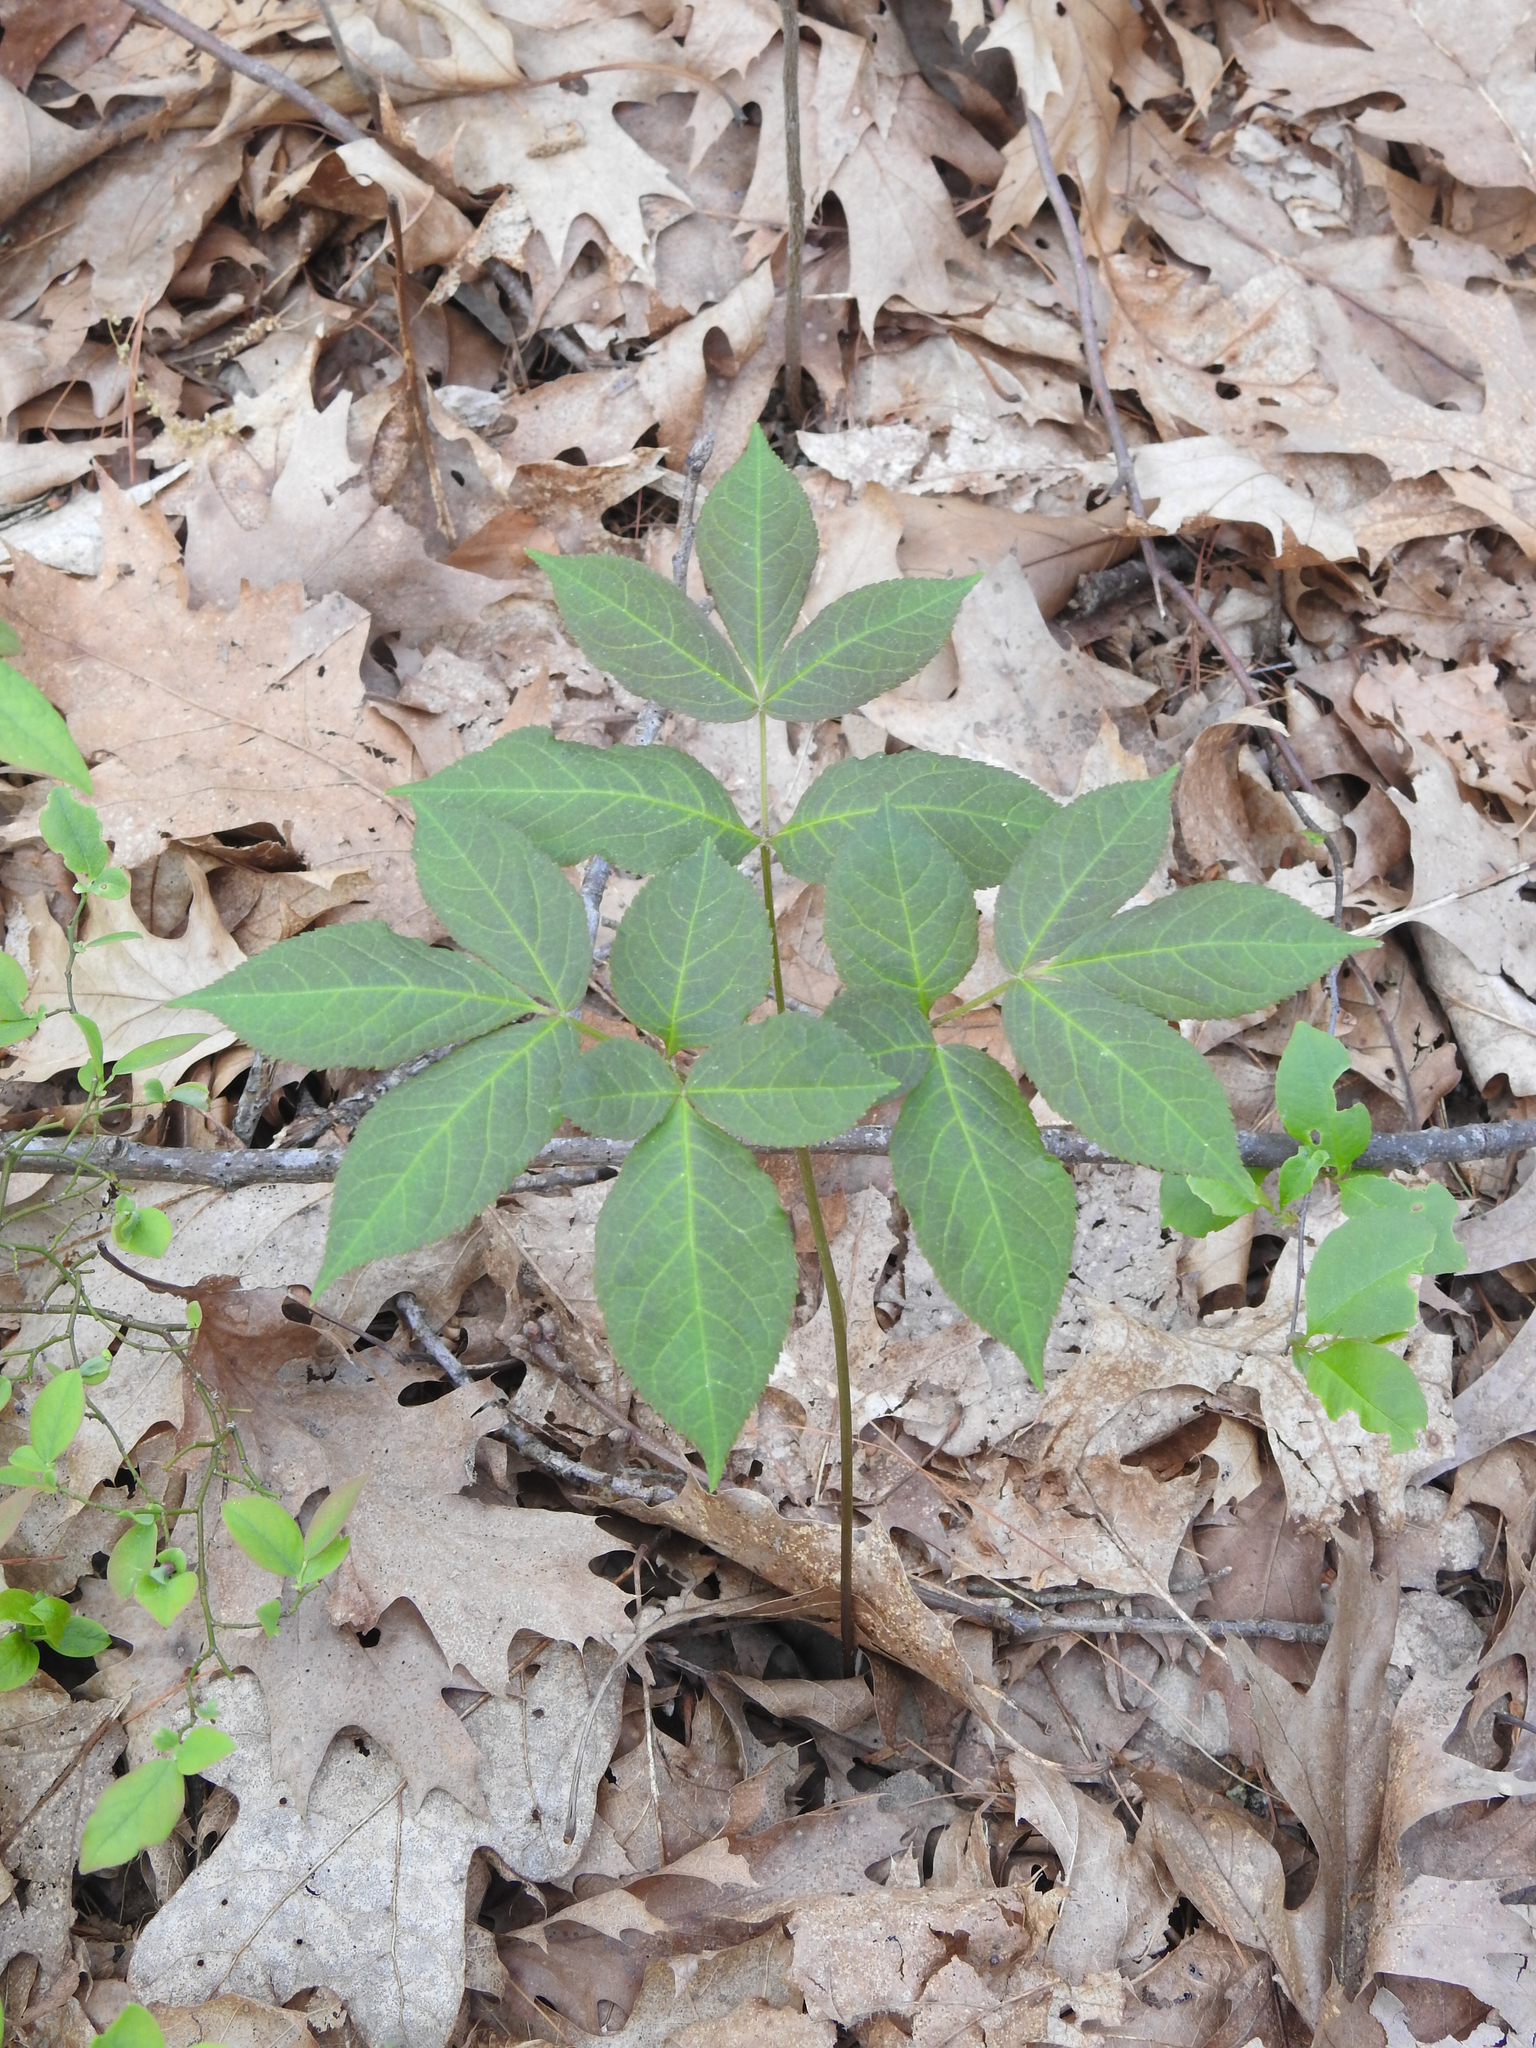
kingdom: Plantae
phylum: Tracheophyta
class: Magnoliopsida
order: Apiales
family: Araliaceae
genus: Aralia
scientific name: Aralia nudicaulis
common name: Wild sarsaparilla
